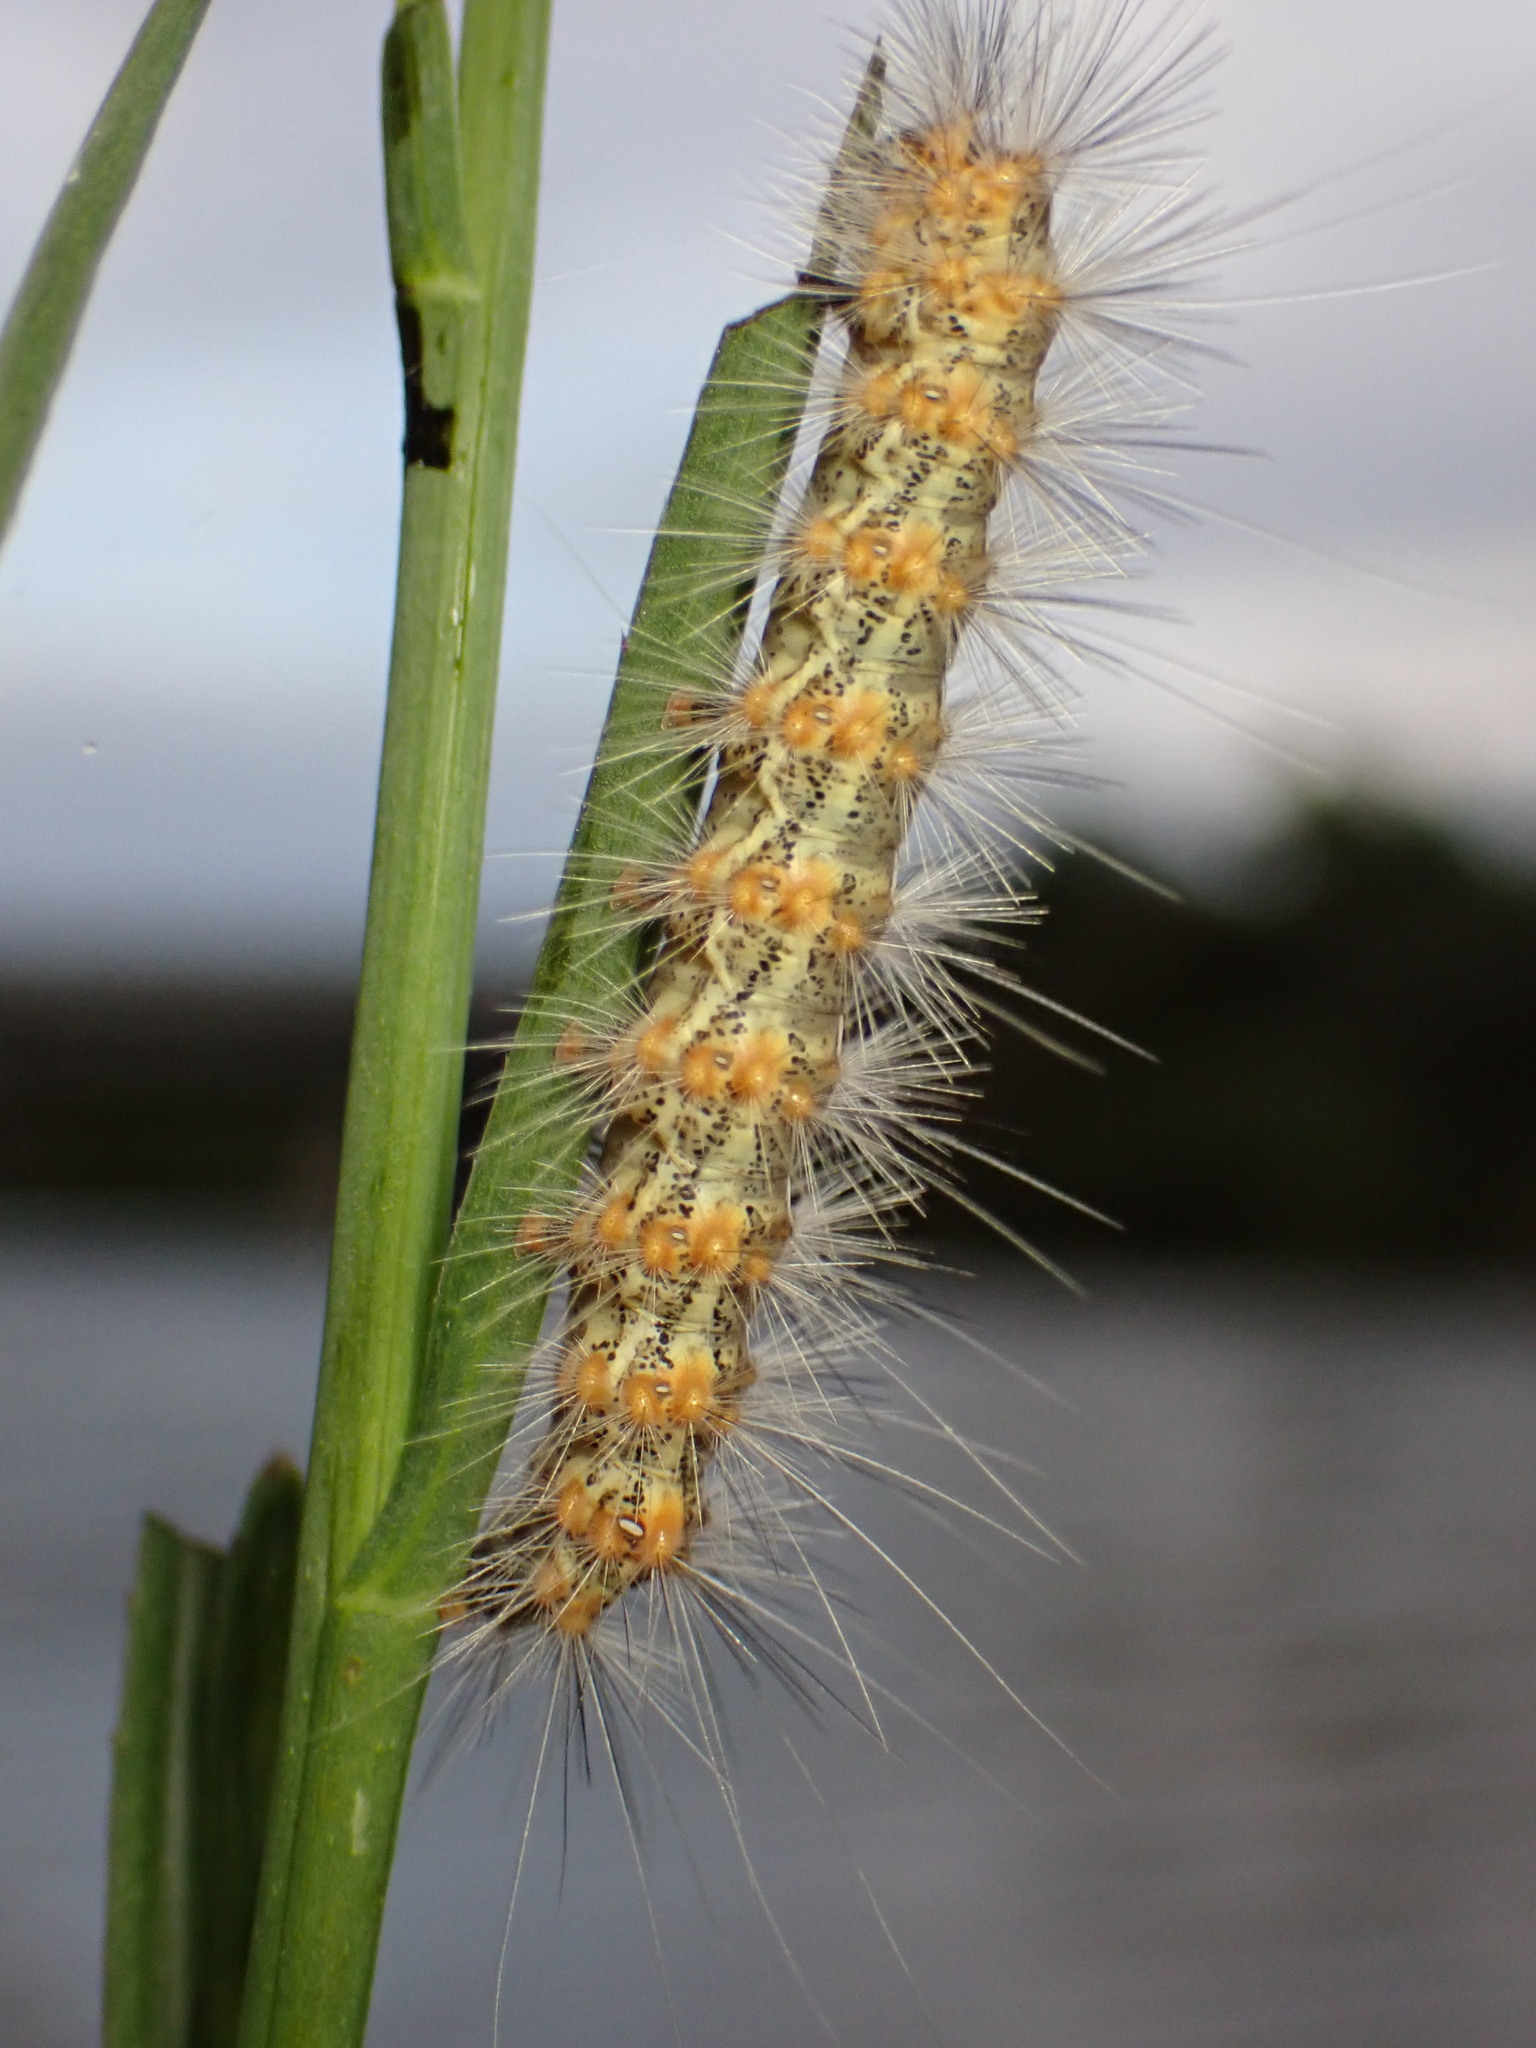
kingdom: Animalia
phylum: Arthropoda
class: Insecta
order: Lepidoptera
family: Erebidae
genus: Estigmene
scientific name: Estigmene acrea
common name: Salt marsh moth
